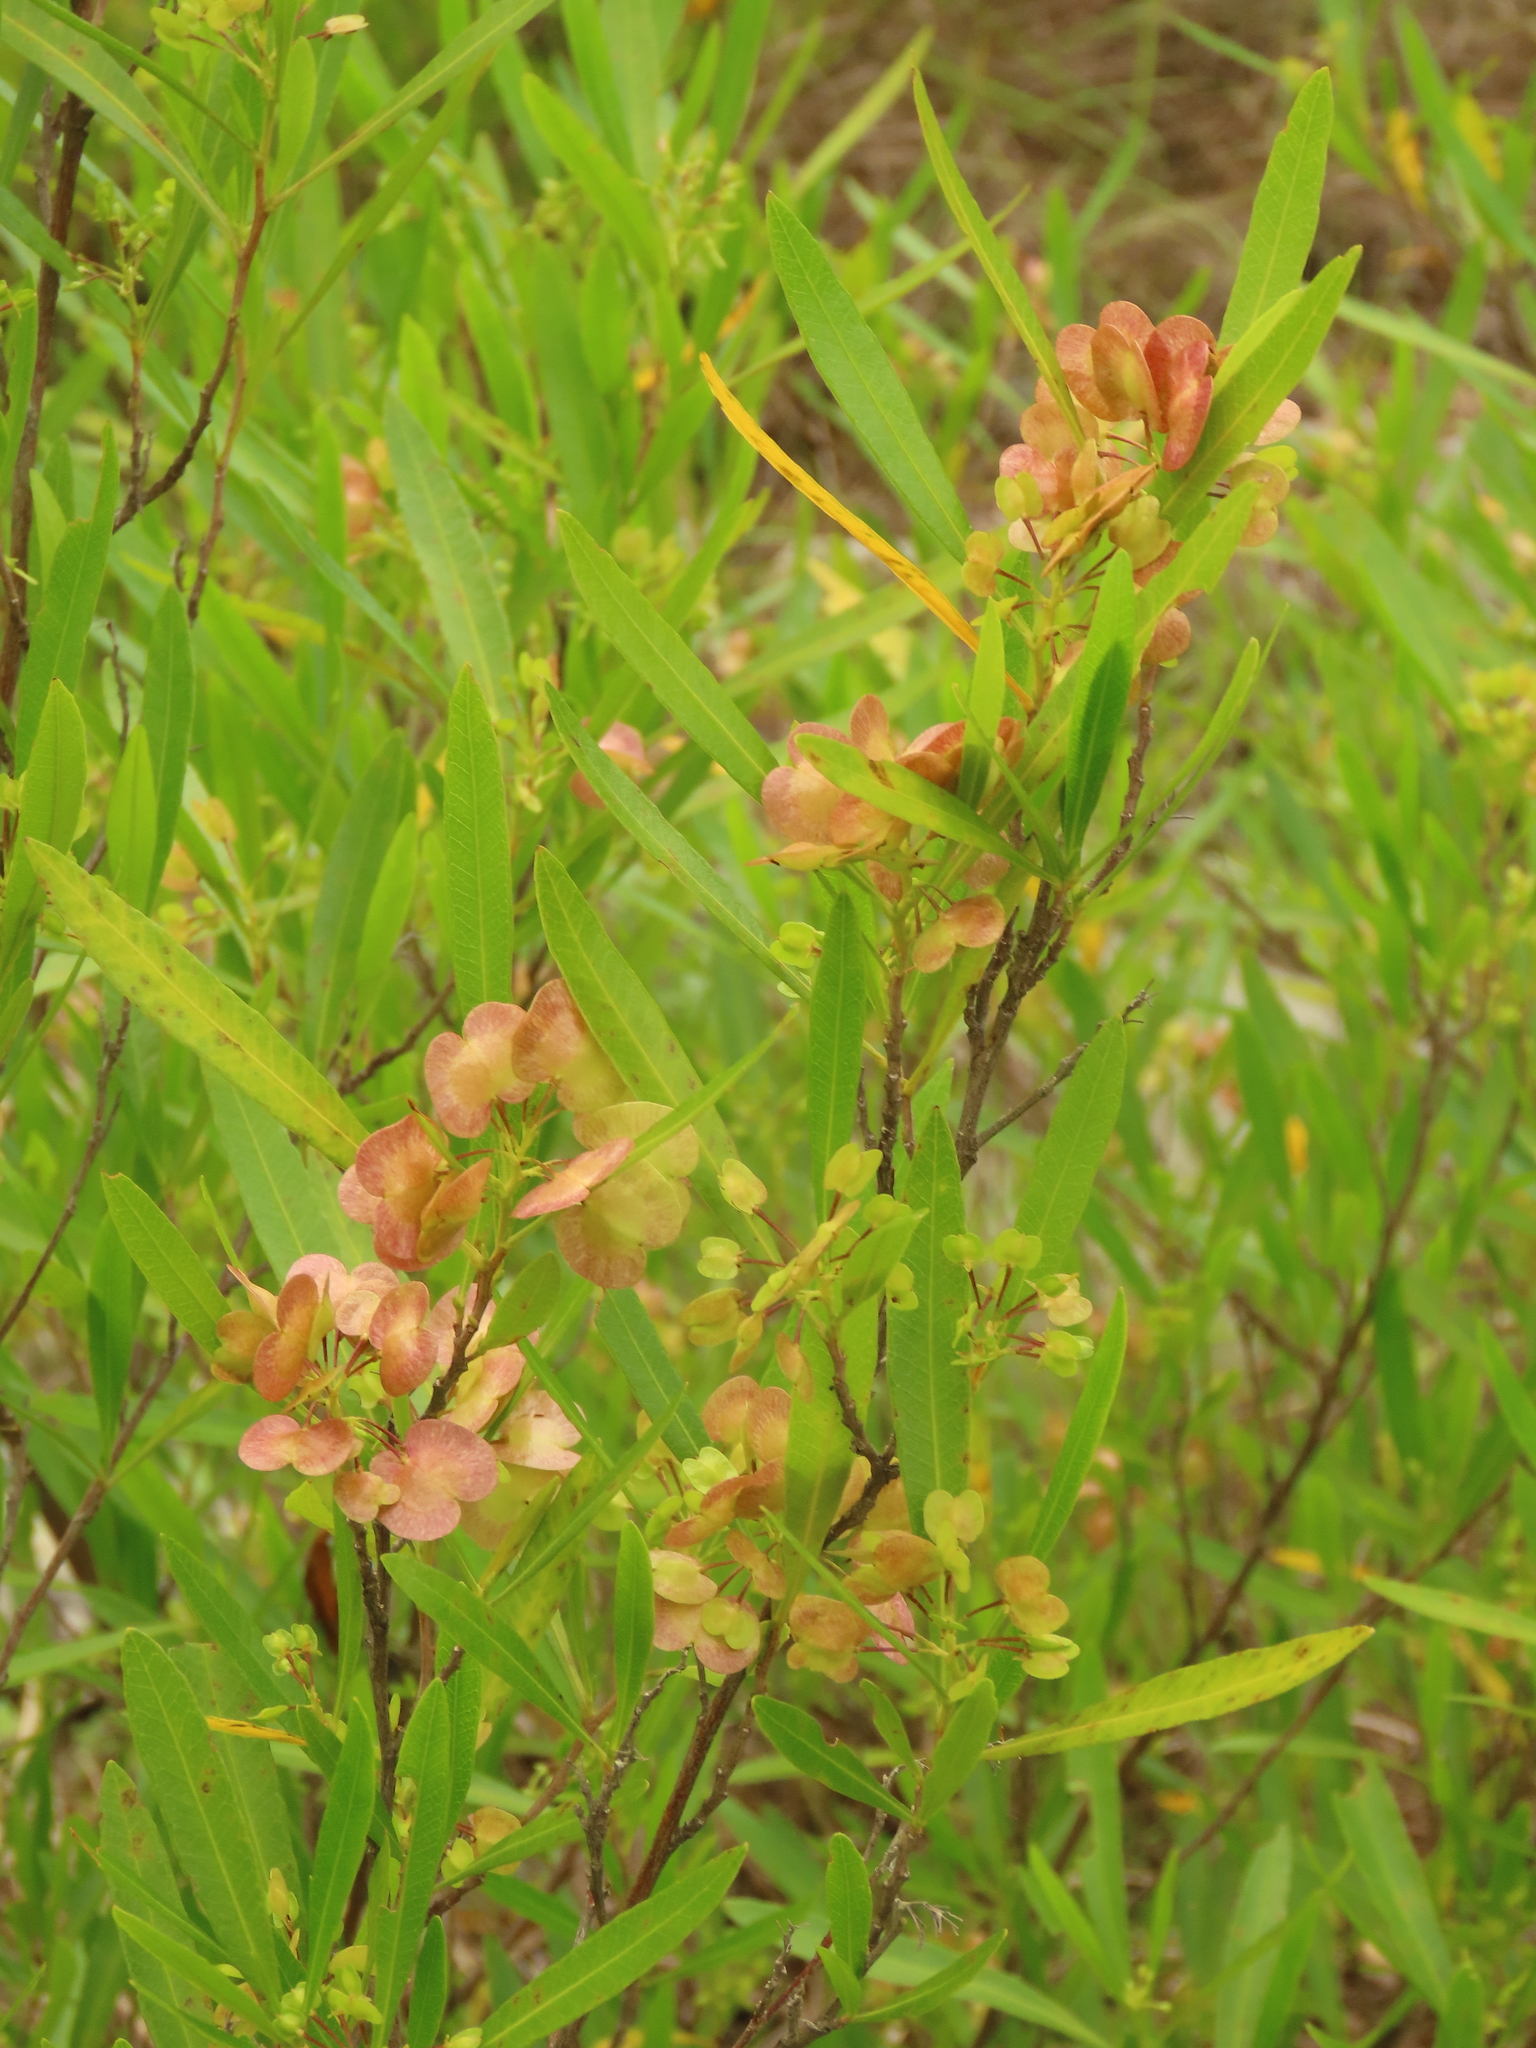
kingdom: Plantae
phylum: Tracheophyta
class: Magnoliopsida
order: Sapindales
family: Sapindaceae
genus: Dodonaea
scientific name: Dodonaea viscosa
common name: Hopbush
